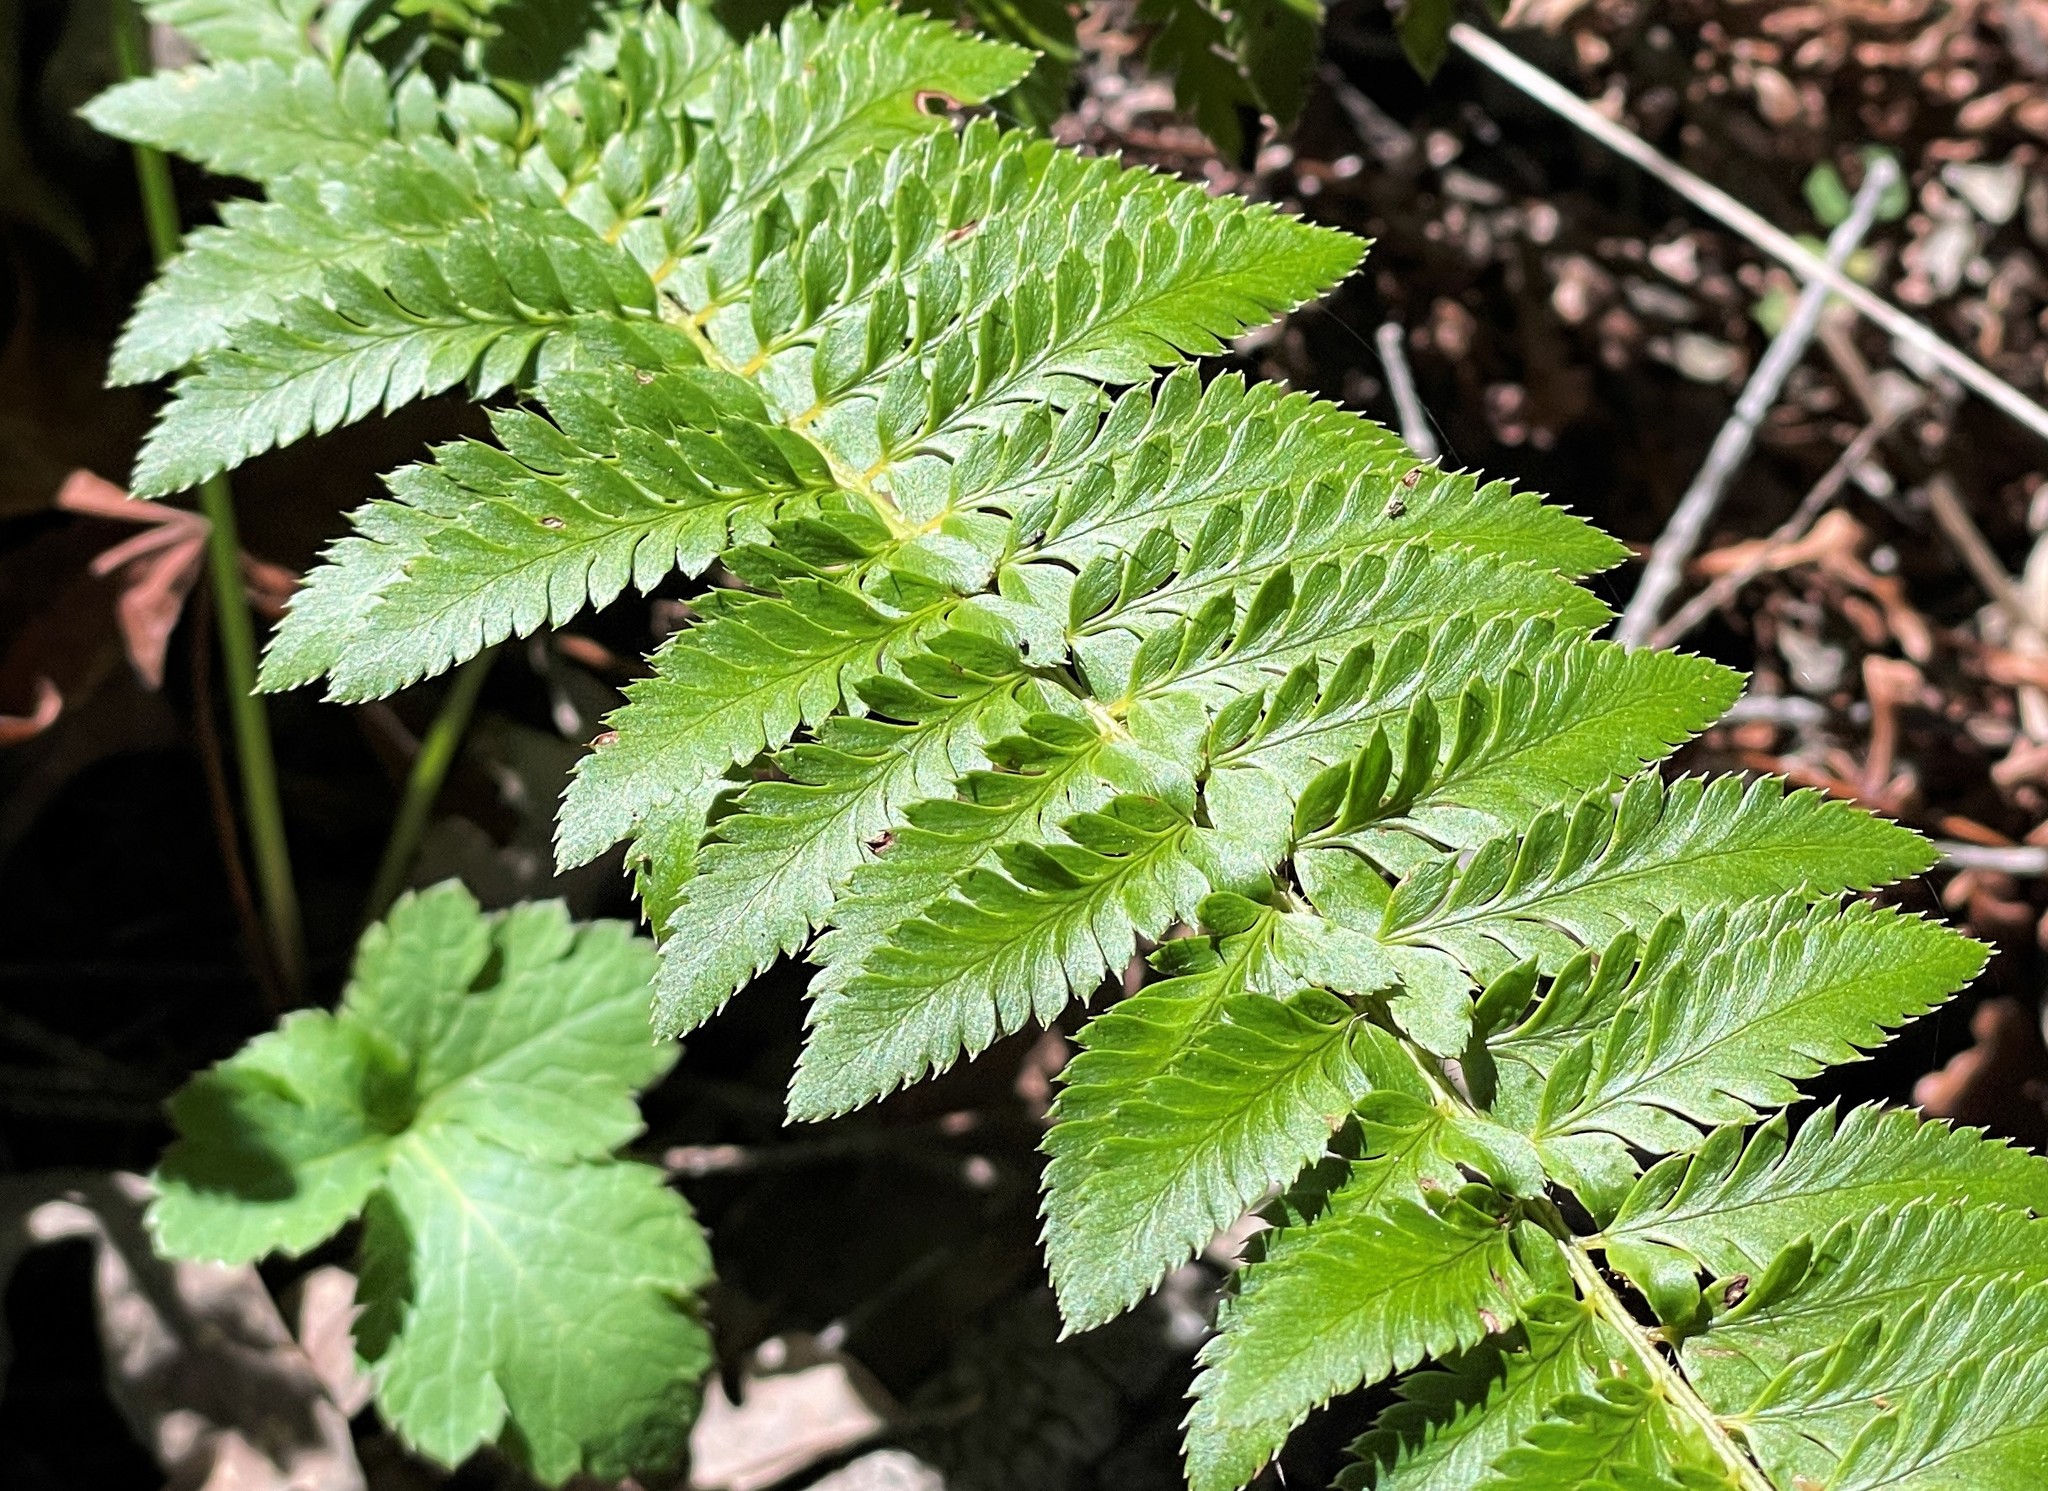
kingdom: Plantae
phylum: Tracheophyta
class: Polypodiopsida
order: Polypodiales
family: Dryopteridaceae
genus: Polystichum
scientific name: Polystichum californicum
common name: California sword fern
